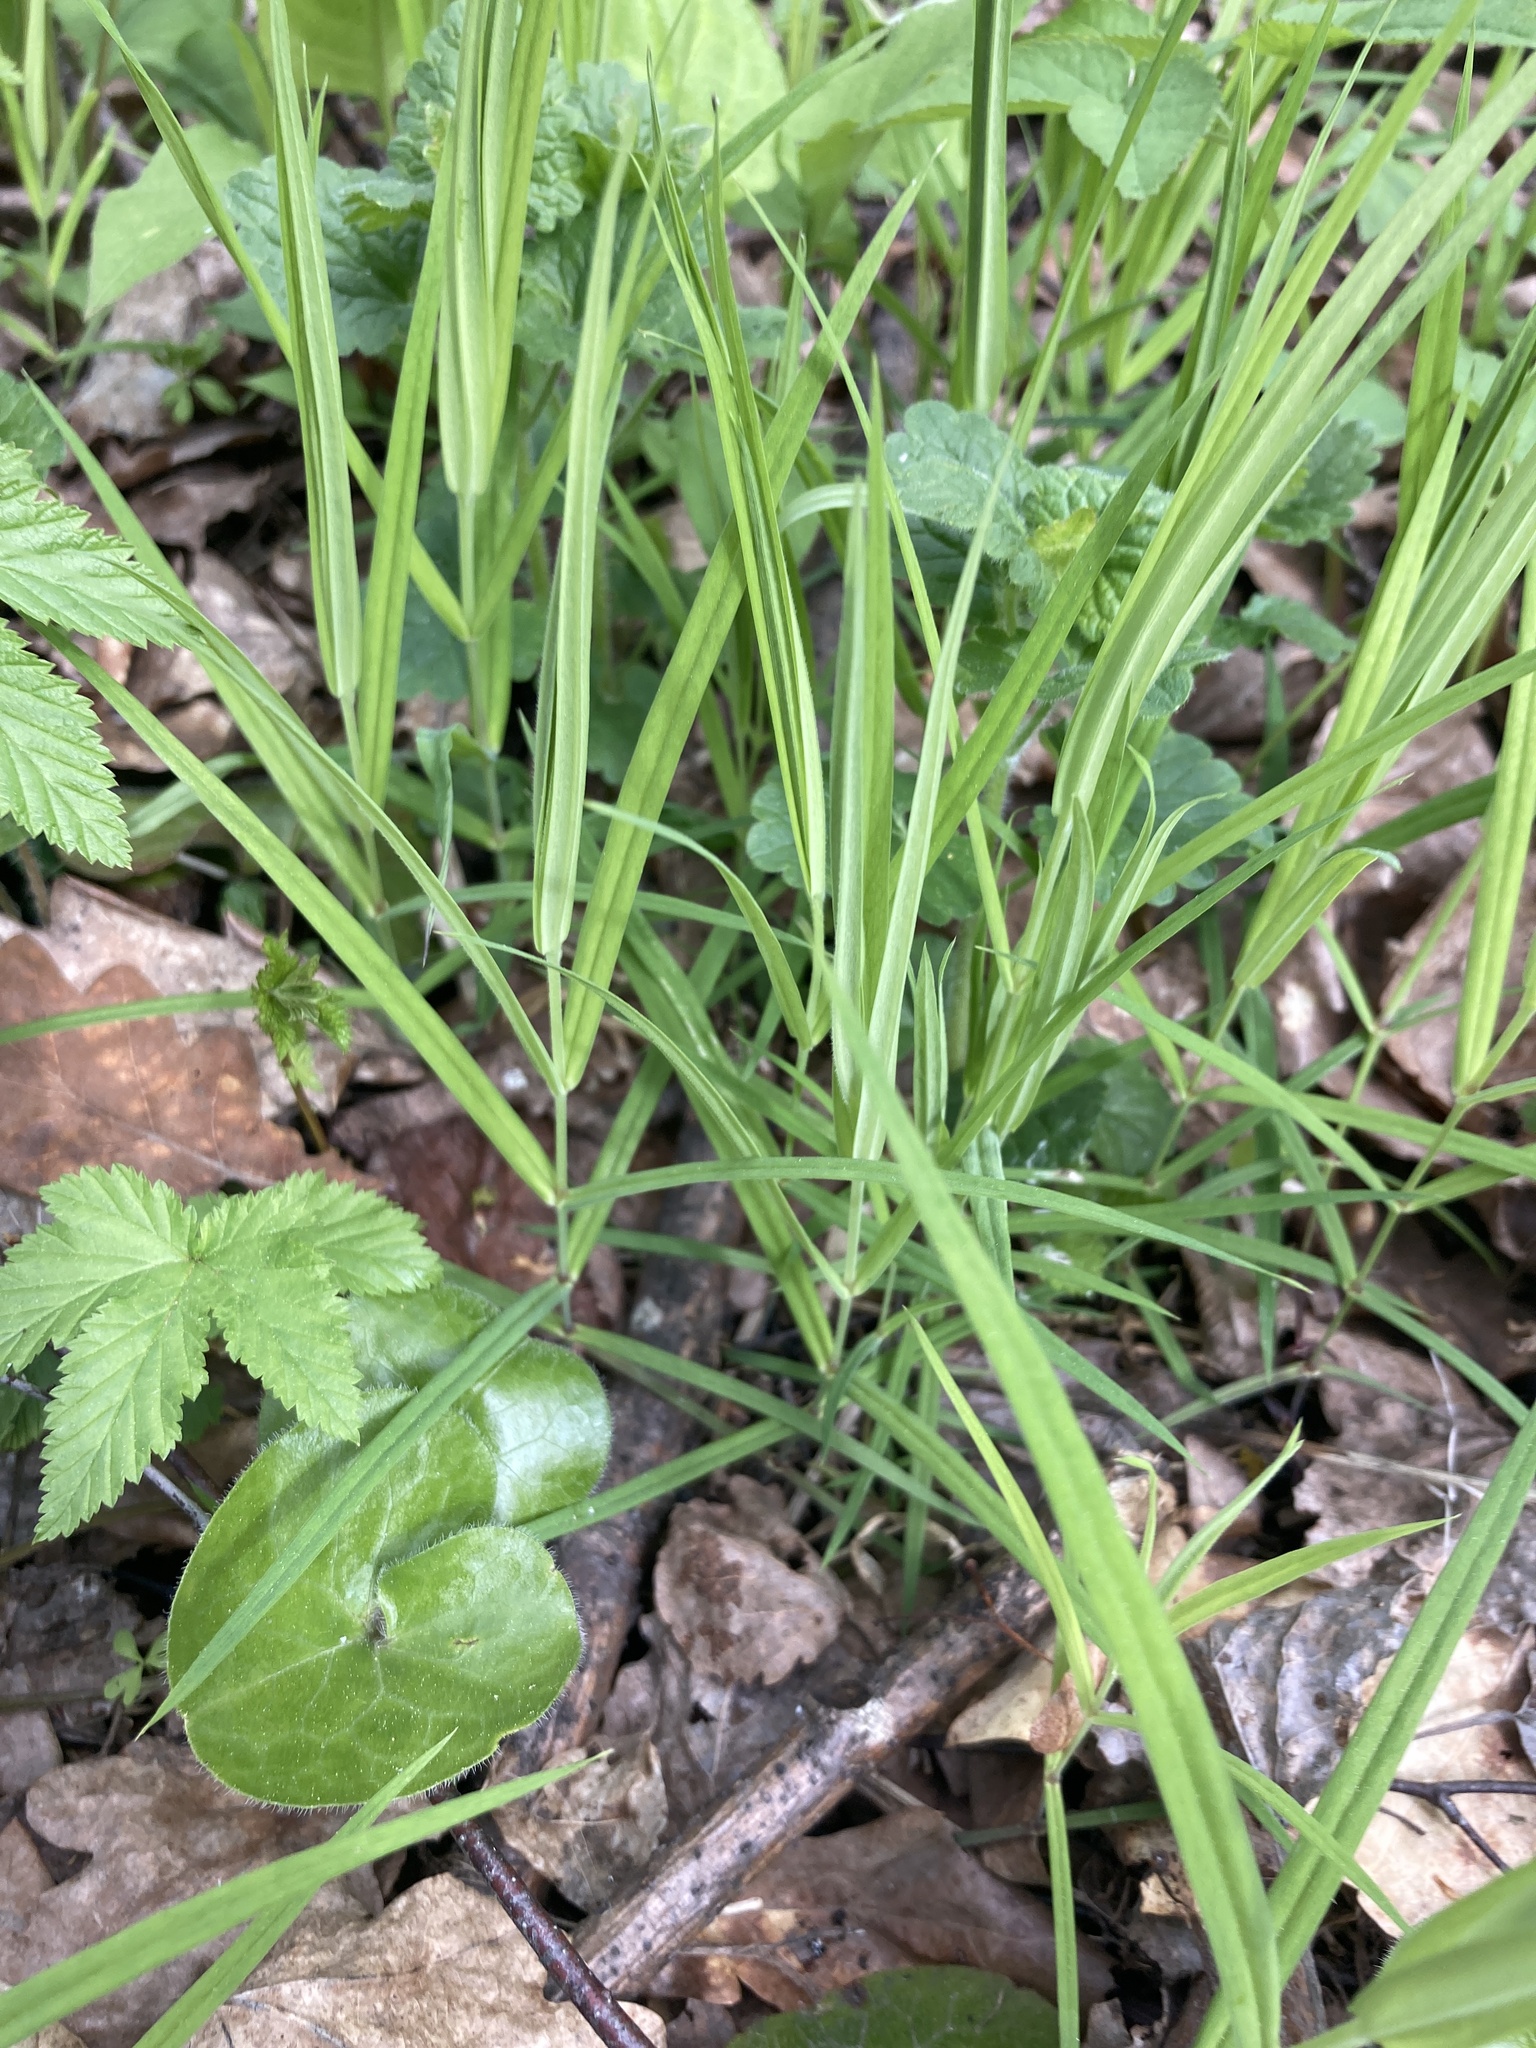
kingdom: Plantae
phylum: Tracheophyta
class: Magnoliopsida
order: Caryophyllales
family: Caryophyllaceae
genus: Rabelera
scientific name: Rabelera holostea
